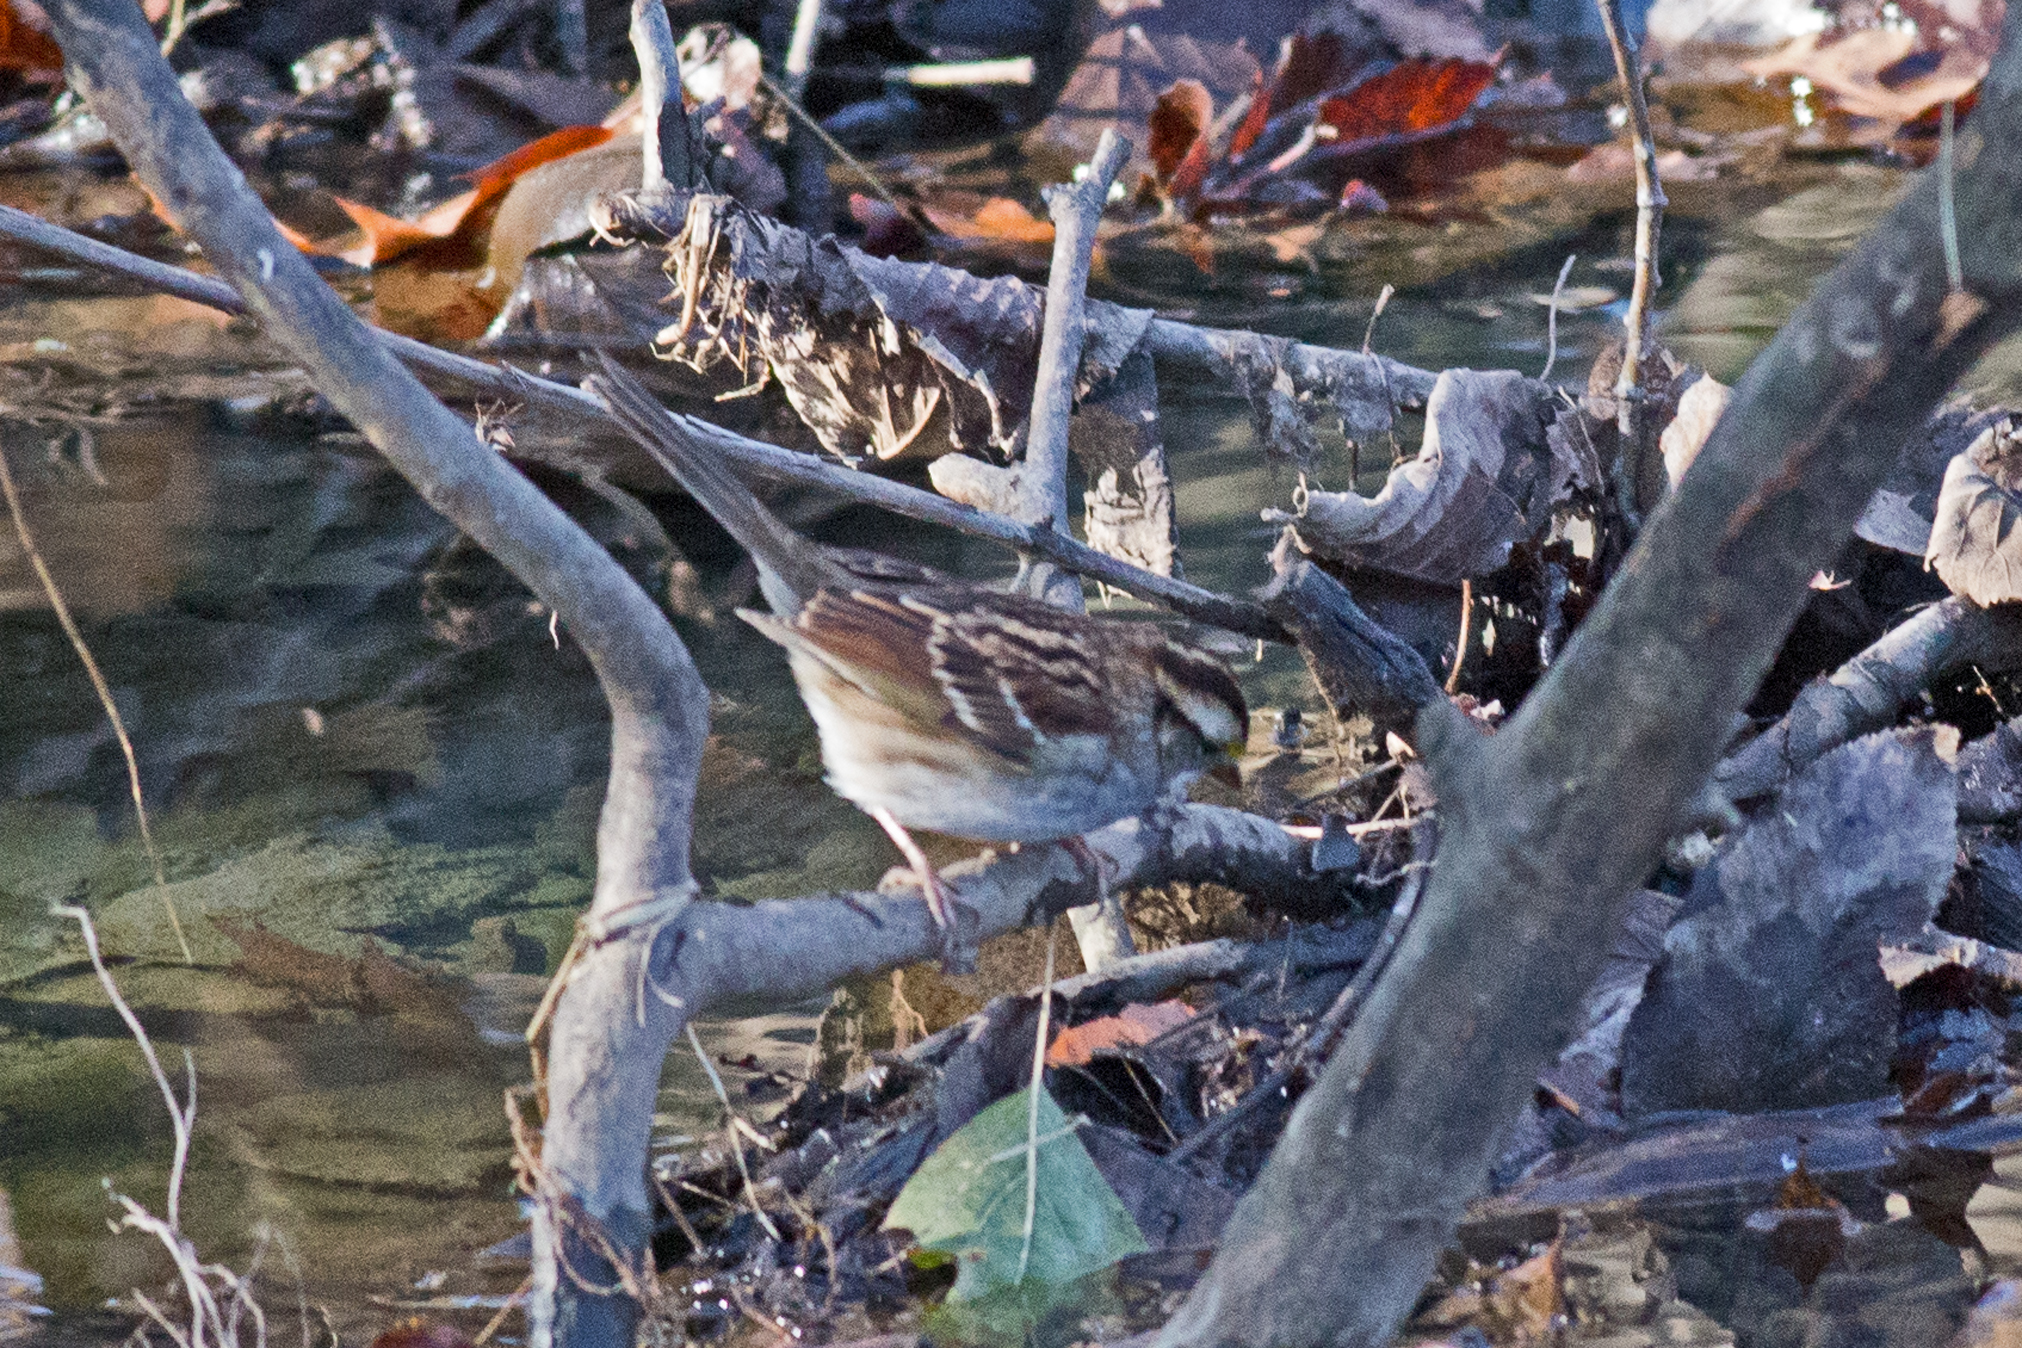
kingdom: Animalia
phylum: Chordata
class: Aves
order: Passeriformes
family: Passerellidae
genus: Zonotrichia
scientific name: Zonotrichia albicollis
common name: White-throated sparrow
